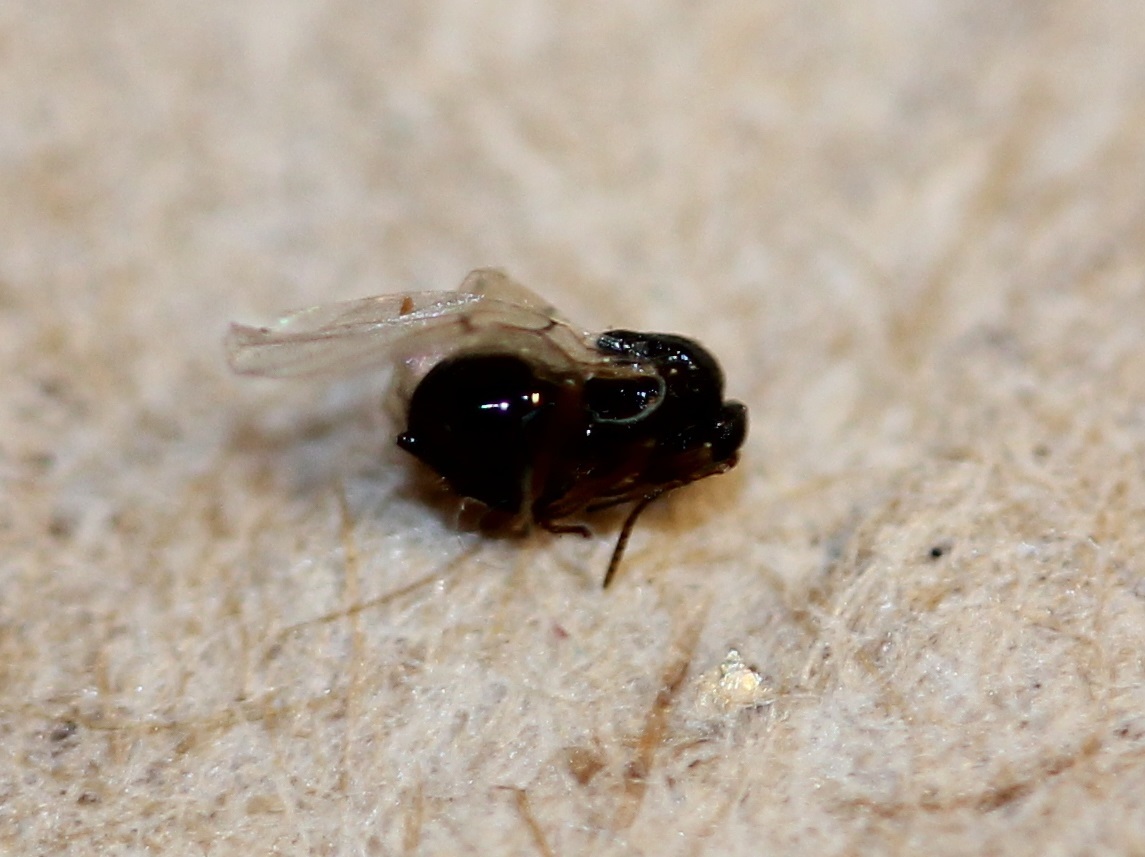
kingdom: Animalia
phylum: Arthropoda
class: Insecta
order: Hymenoptera
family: Cynipidae
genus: Andricus
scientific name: Andricus Druon ignotum
